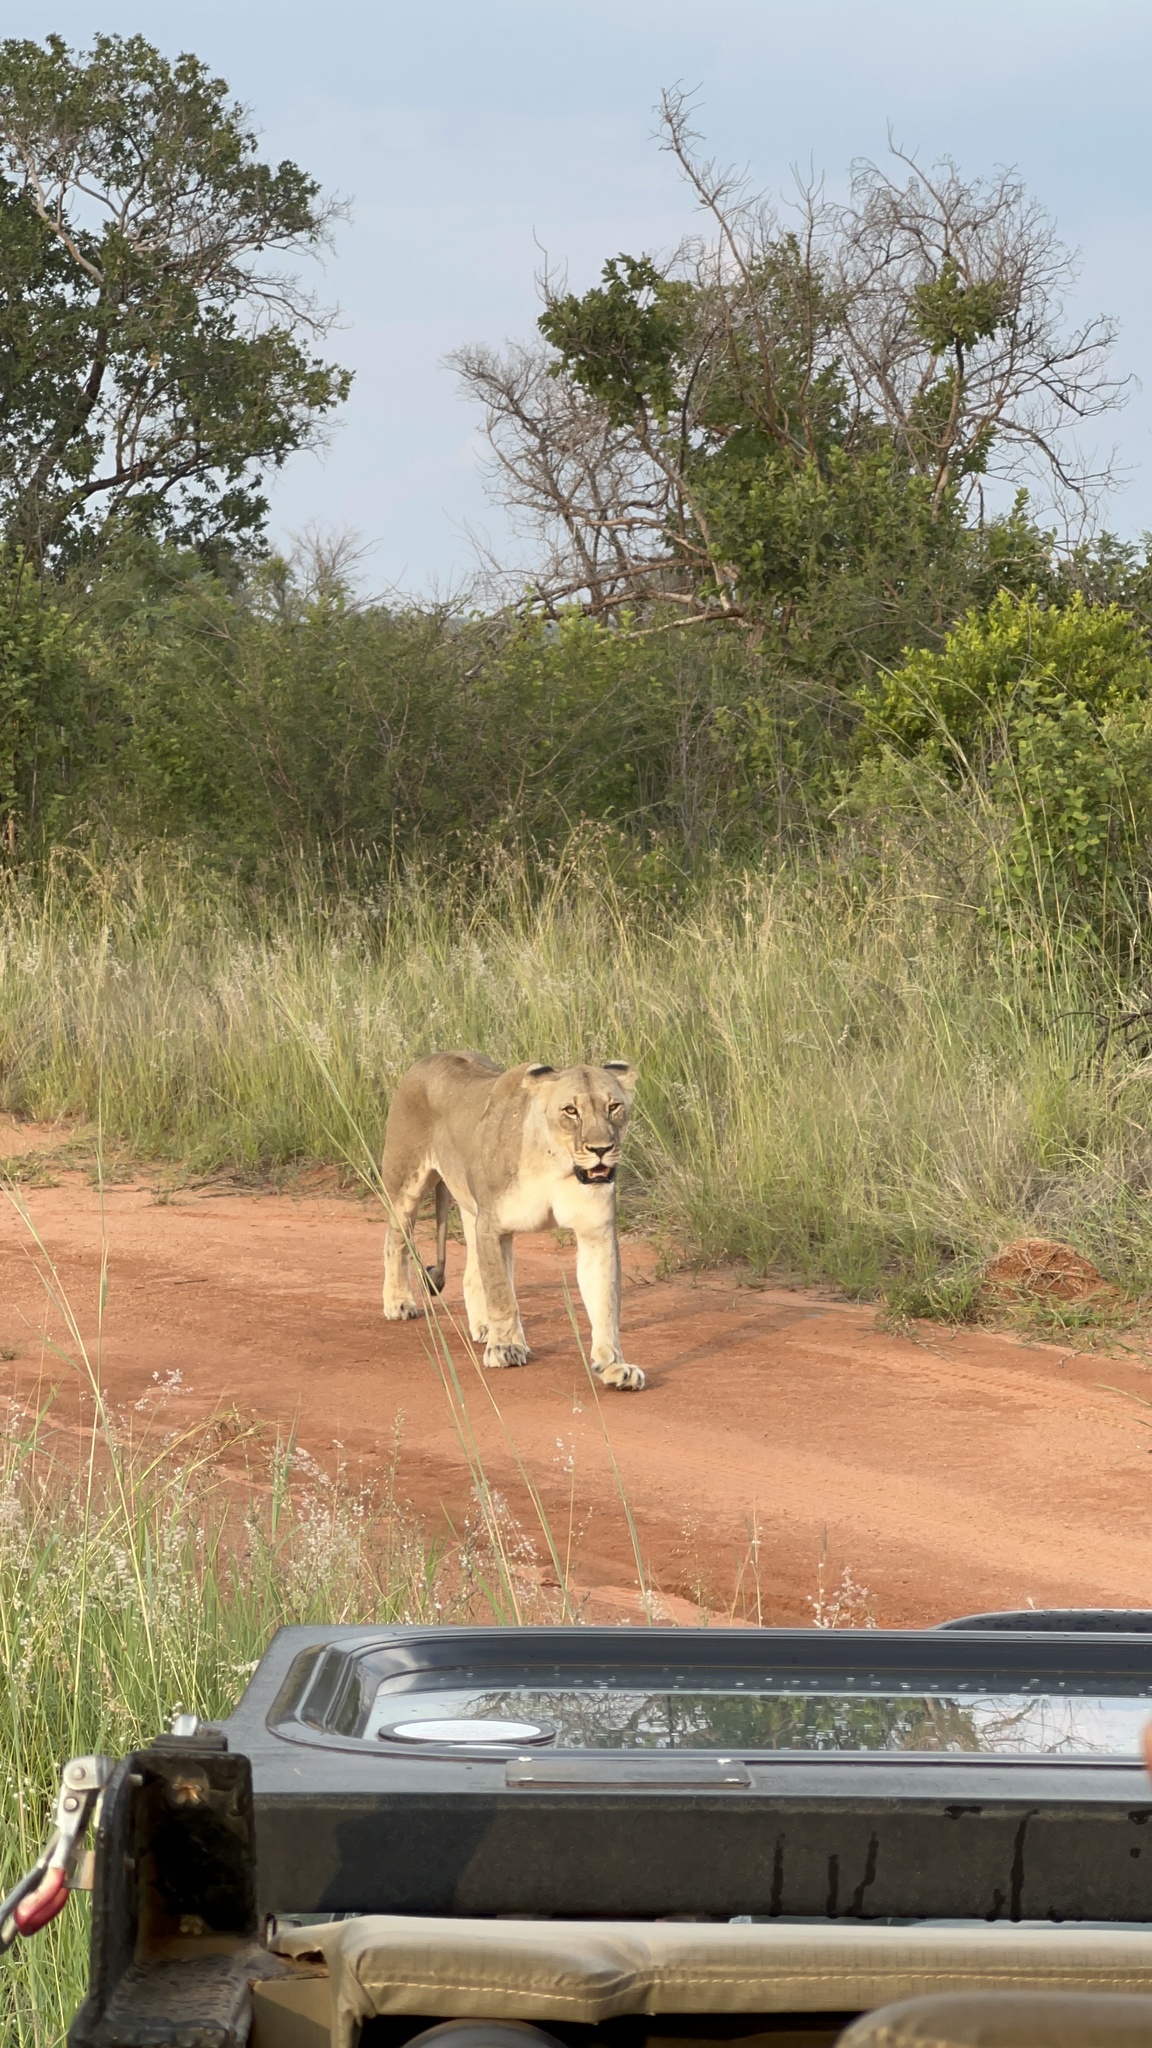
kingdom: Animalia
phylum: Chordata
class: Mammalia
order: Carnivora
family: Felidae
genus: Panthera
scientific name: Panthera leo
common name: Lion
